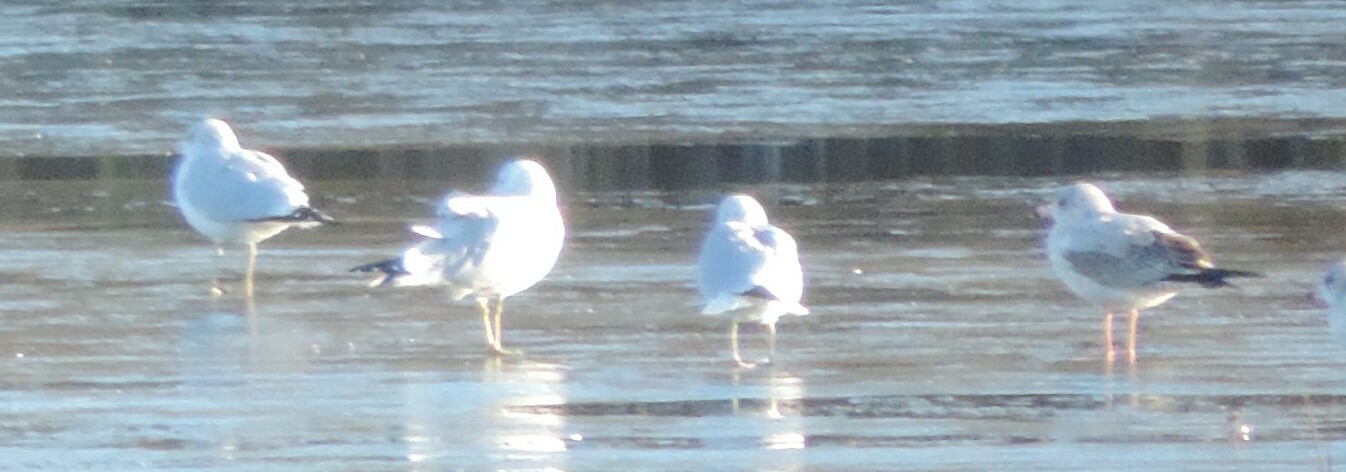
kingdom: Animalia
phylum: Chordata
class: Aves
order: Charadriiformes
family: Laridae
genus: Larus
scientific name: Larus delawarensis
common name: Ring-billed gull
